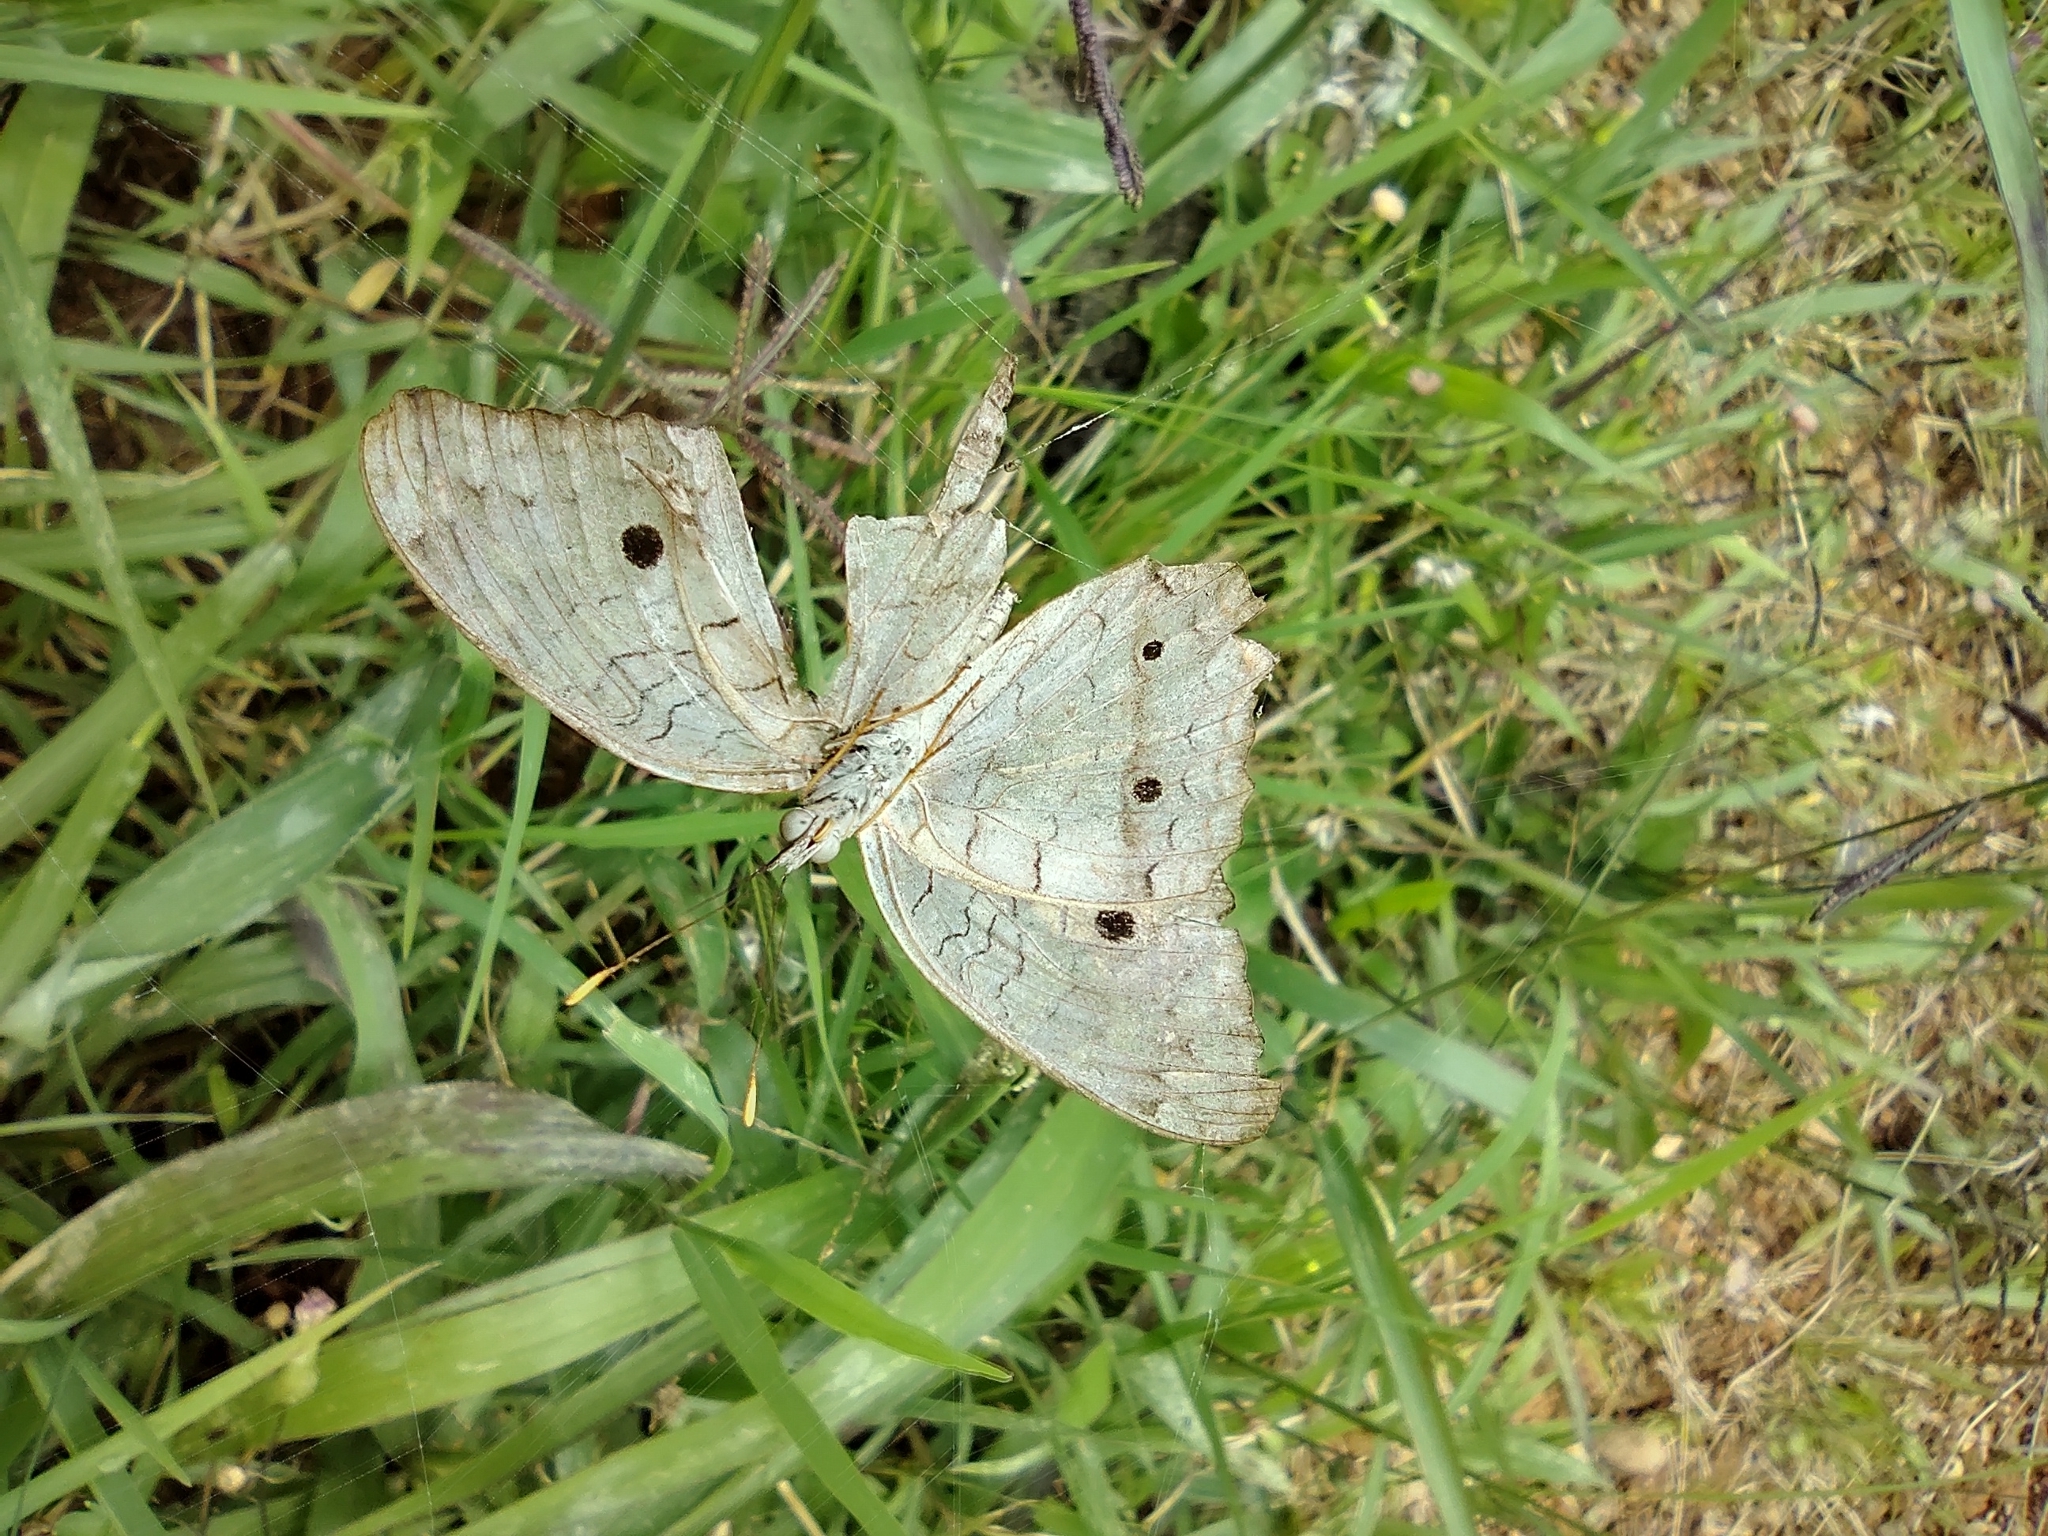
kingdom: Animalia
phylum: Arthropoda
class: Insecta
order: Lepidoptera
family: Nymphalidae
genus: Anartia
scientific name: Anartia jatrophae
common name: White peacock
